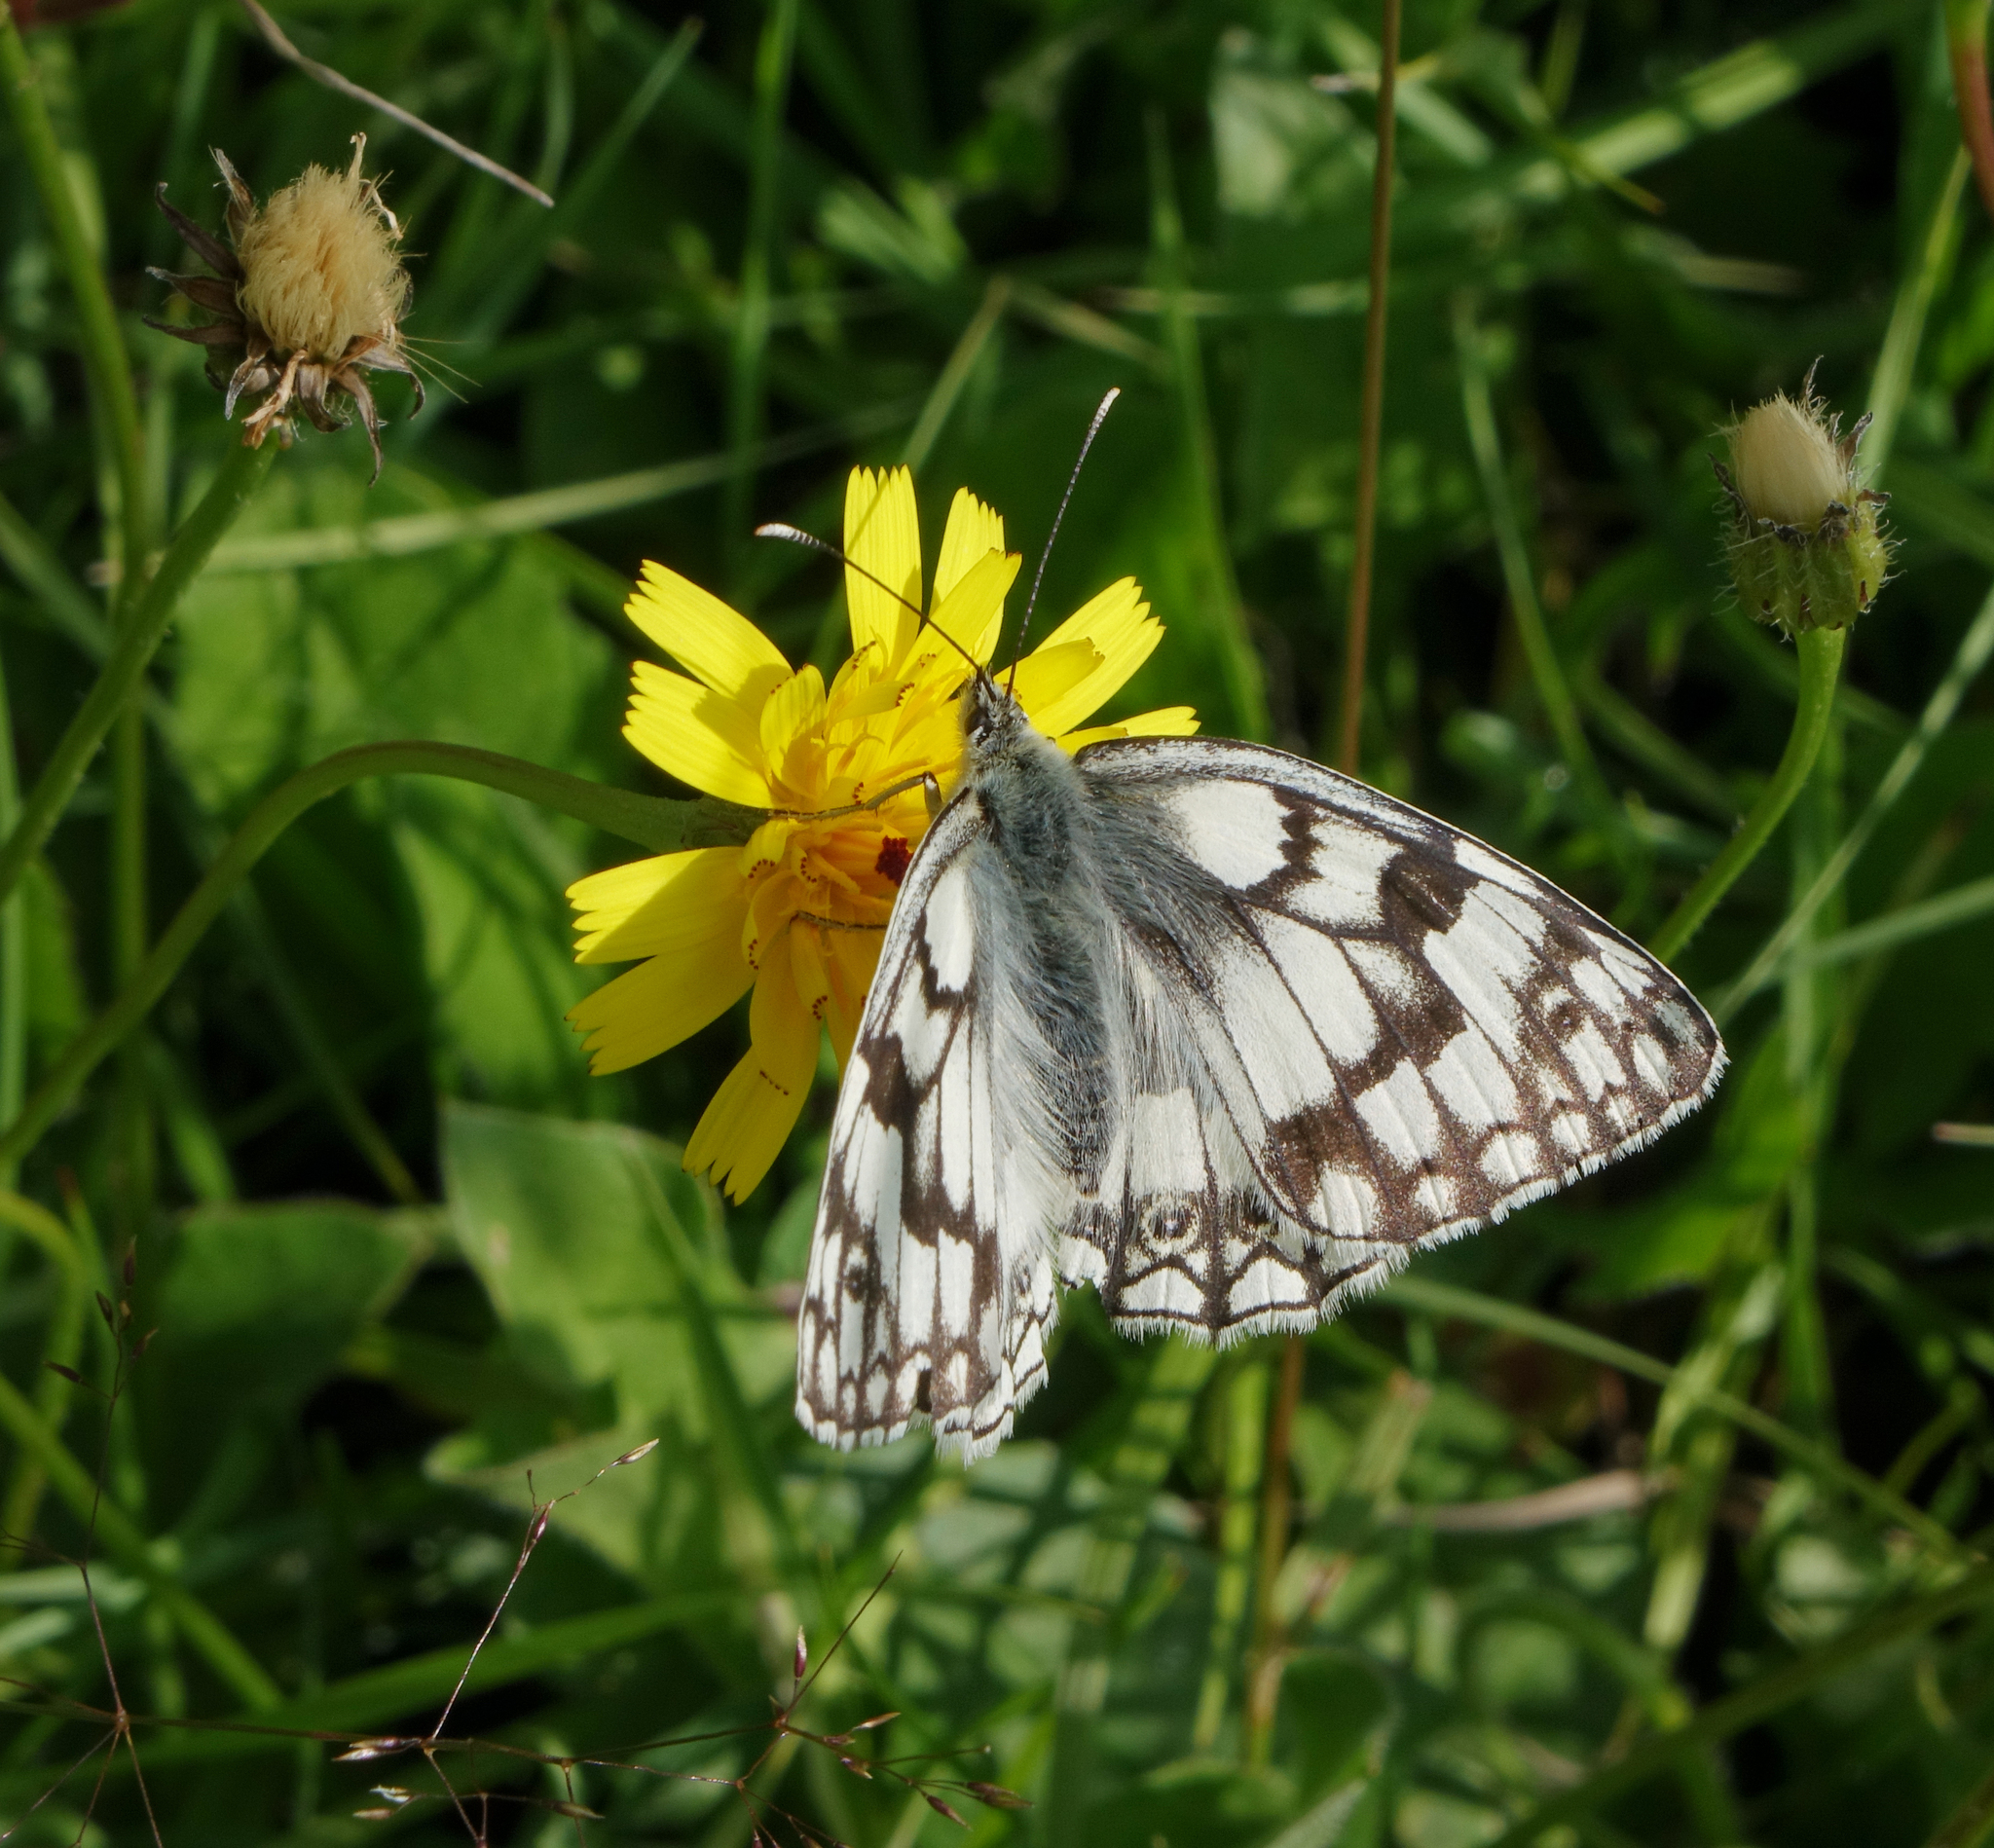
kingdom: Animalia
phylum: Arthropoda
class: Insecta
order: Lepidoptera
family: Nymphalidae
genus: Melanargia
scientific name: Melanargia japygia
